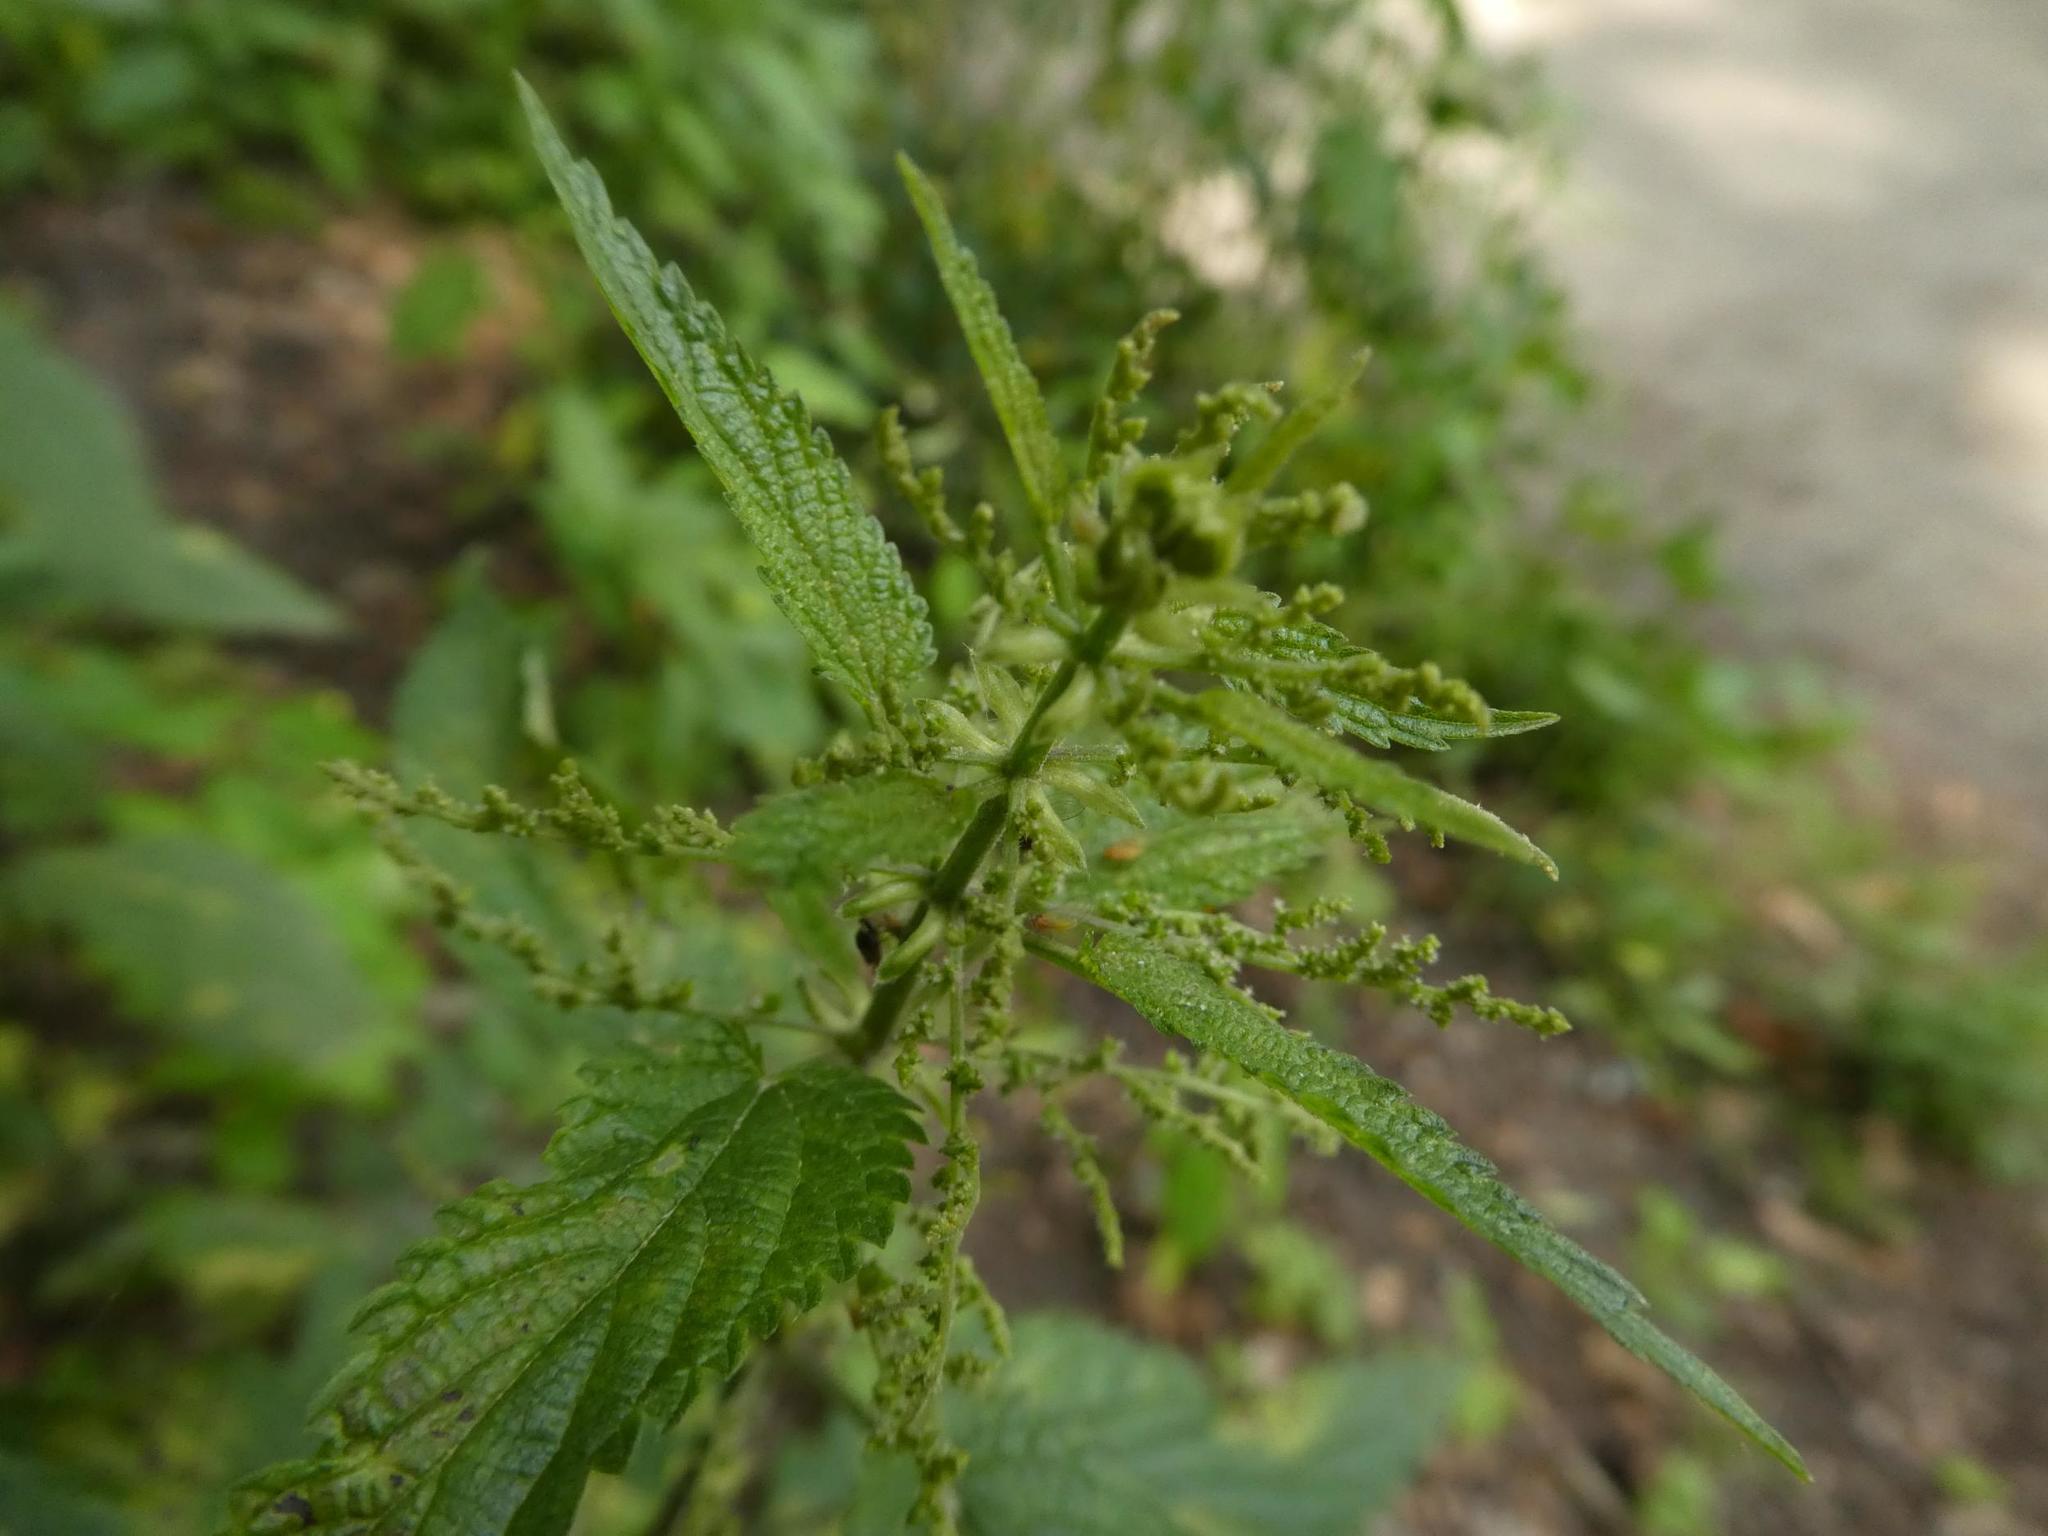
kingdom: Plantae
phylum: Tracheophyta
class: Magnoliopsida
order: Rosales
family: Urticaceae
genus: Urtica
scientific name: Urtica dioica
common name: Common nettle
